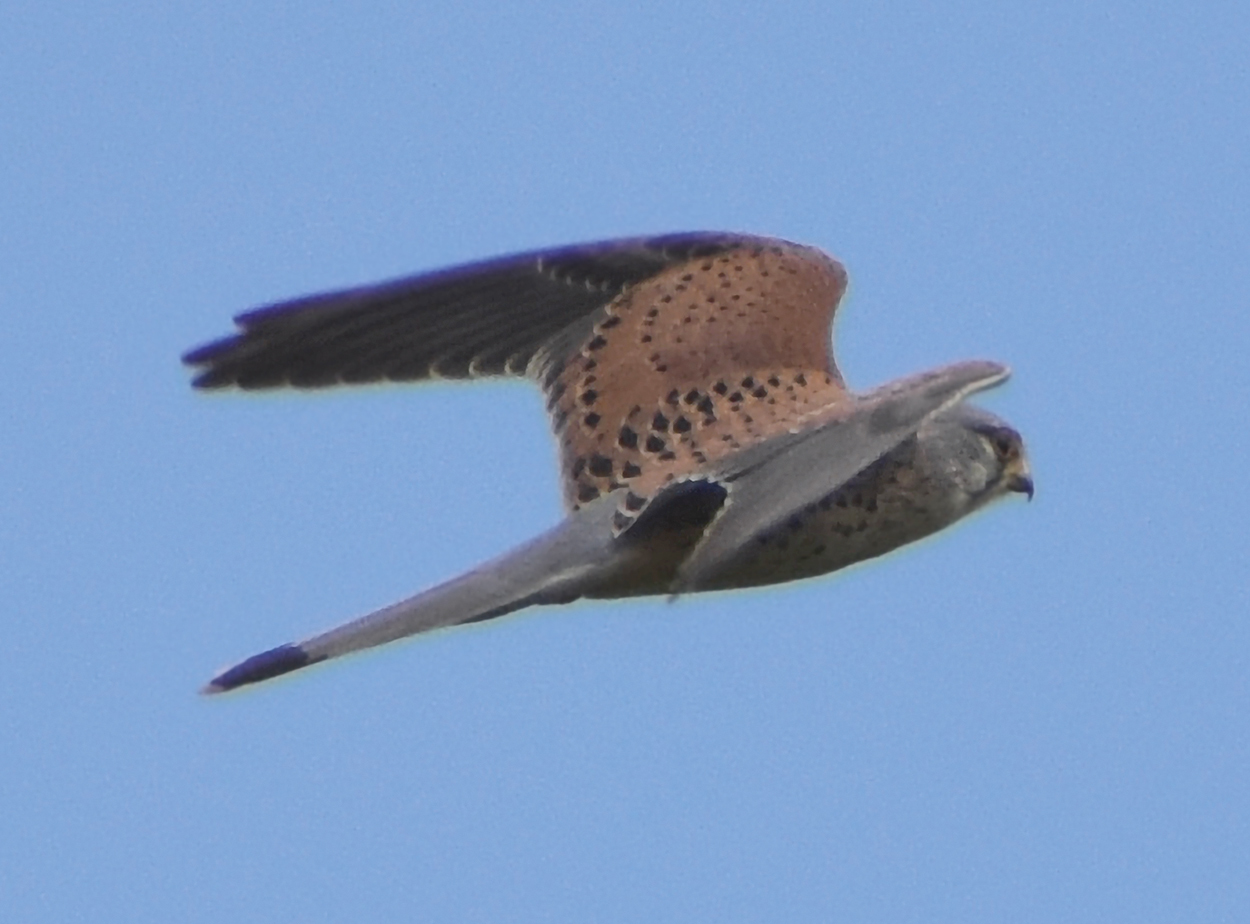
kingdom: Animalia
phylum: Chordata
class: Aves
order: Falconiformes
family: Falconidae
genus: Falco
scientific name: Falco tinnunculus
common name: Common kestrel
